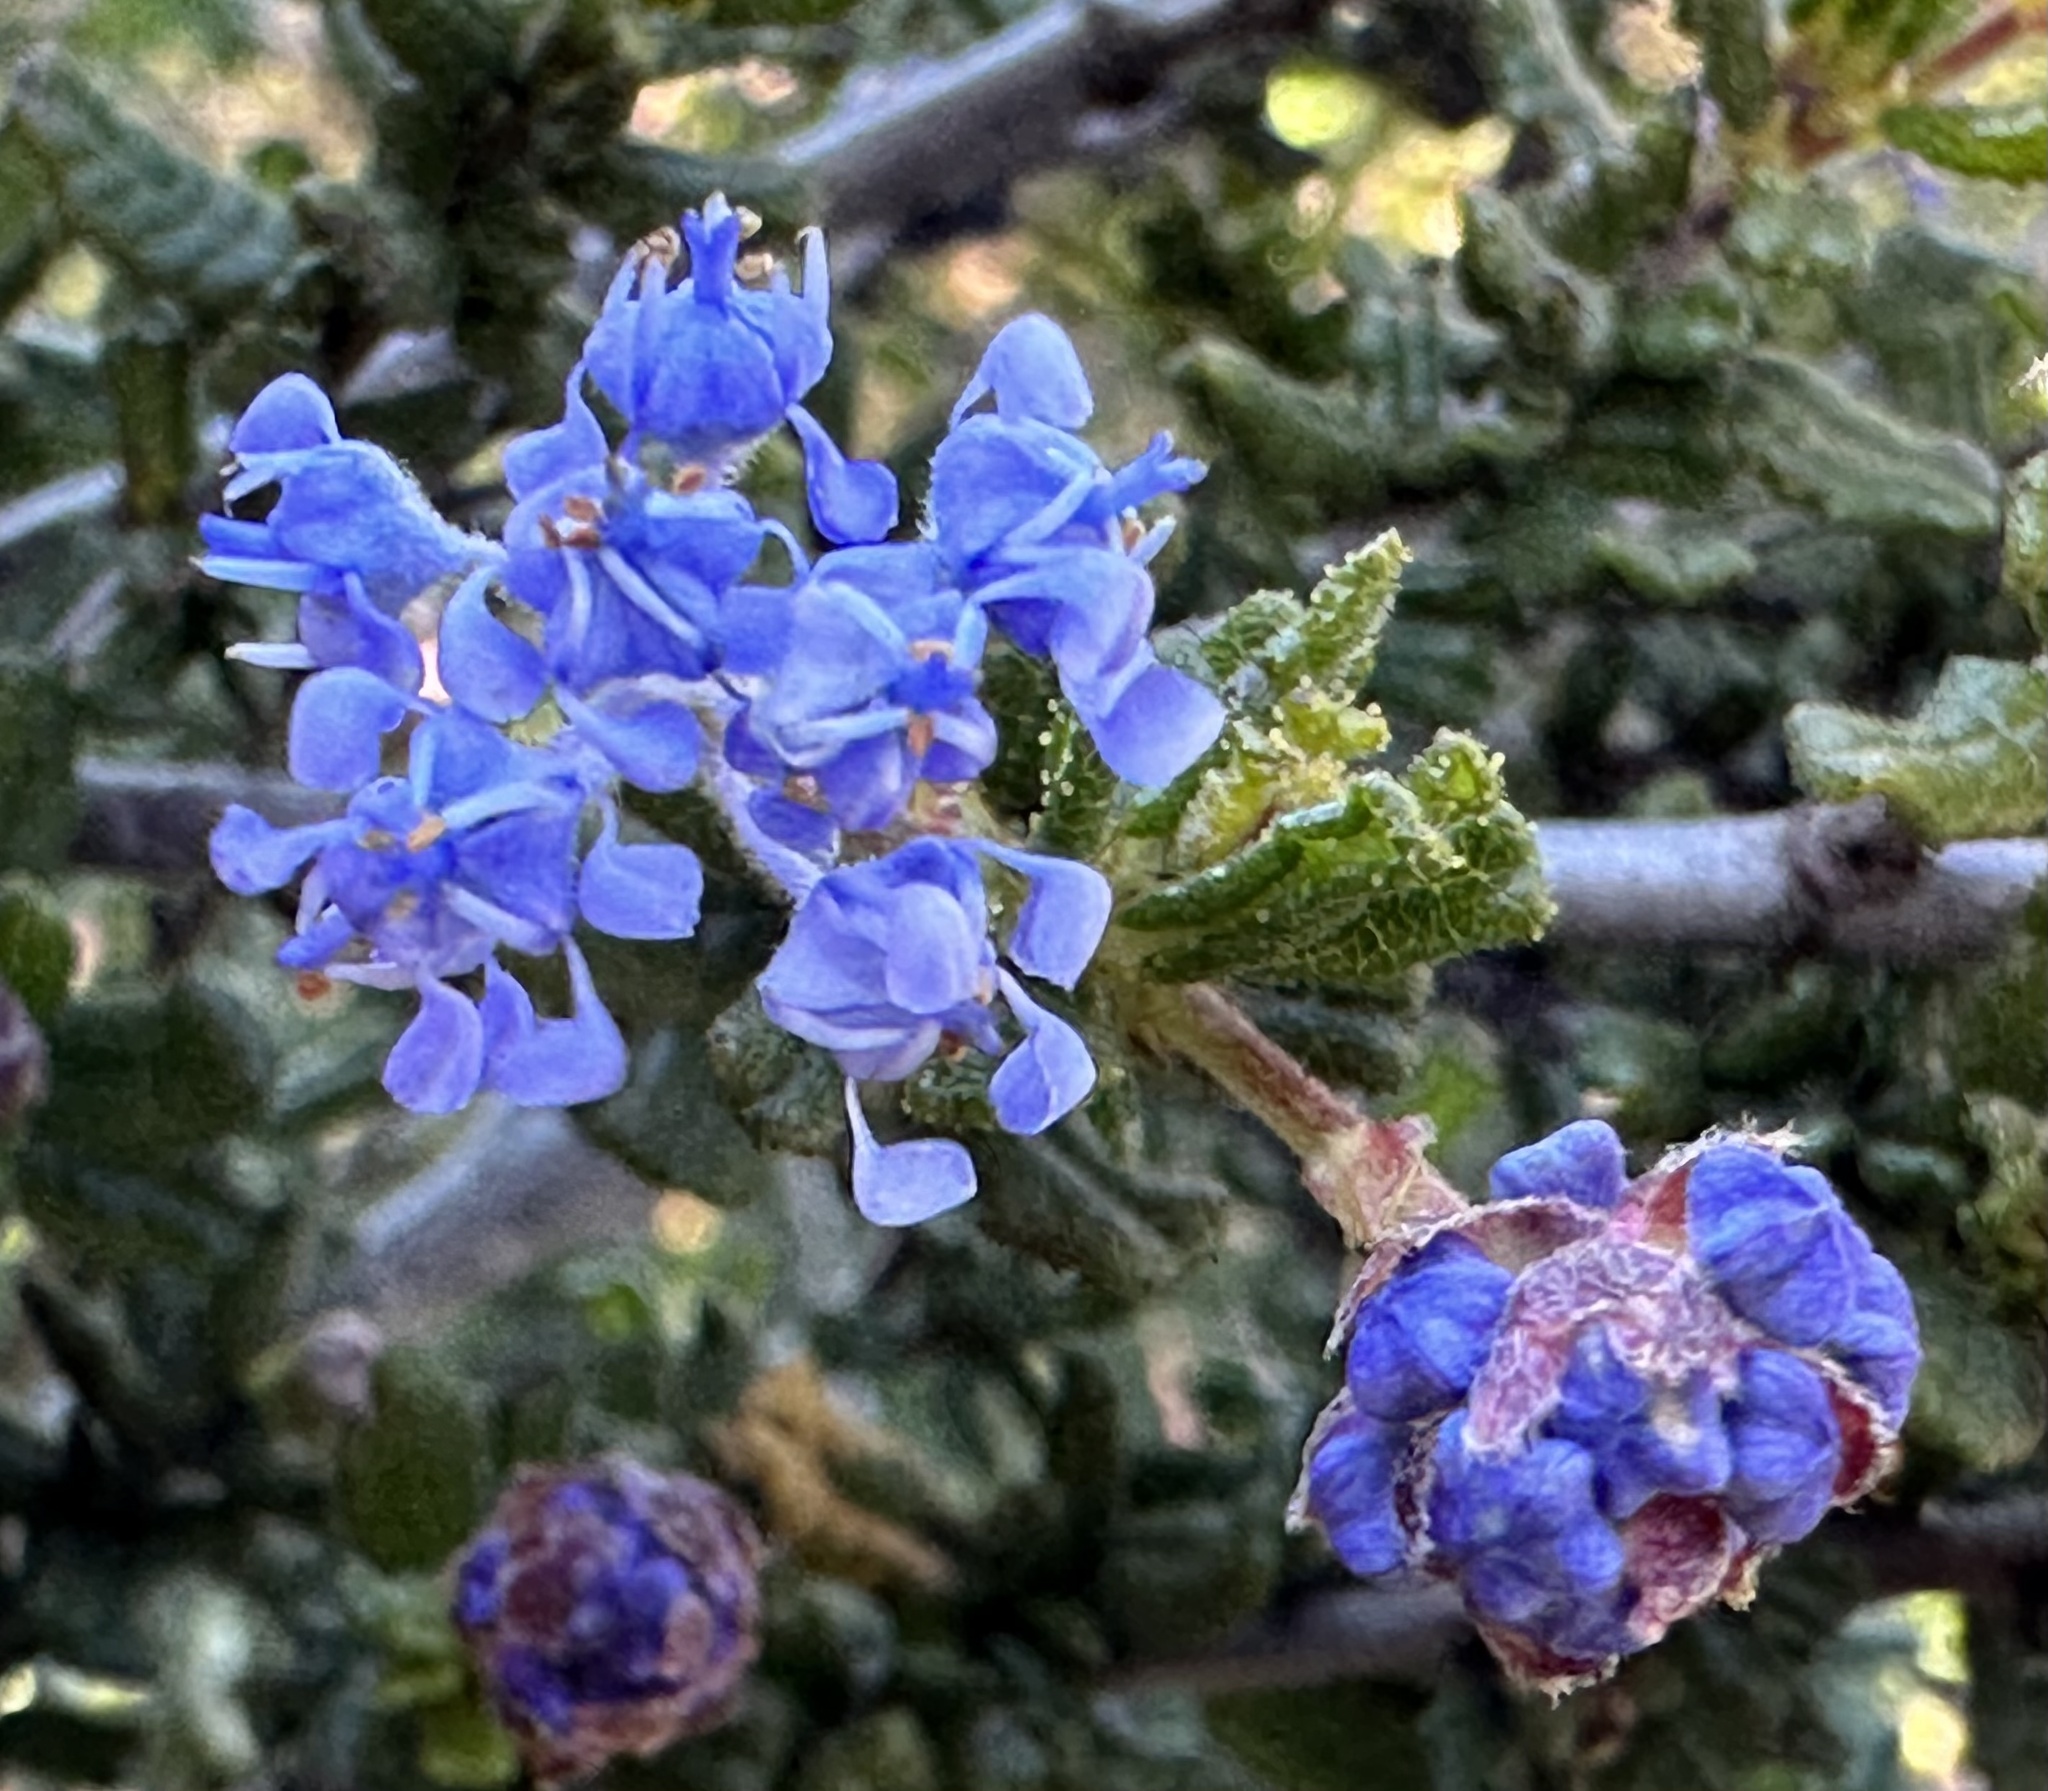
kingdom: Plantae
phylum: Tracheophyta
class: Magnoliopsida
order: Rosales
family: Rhamnaceae
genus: Ceanothus
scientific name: Ceanothus dentatus
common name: Crop-leaf ceanothus
